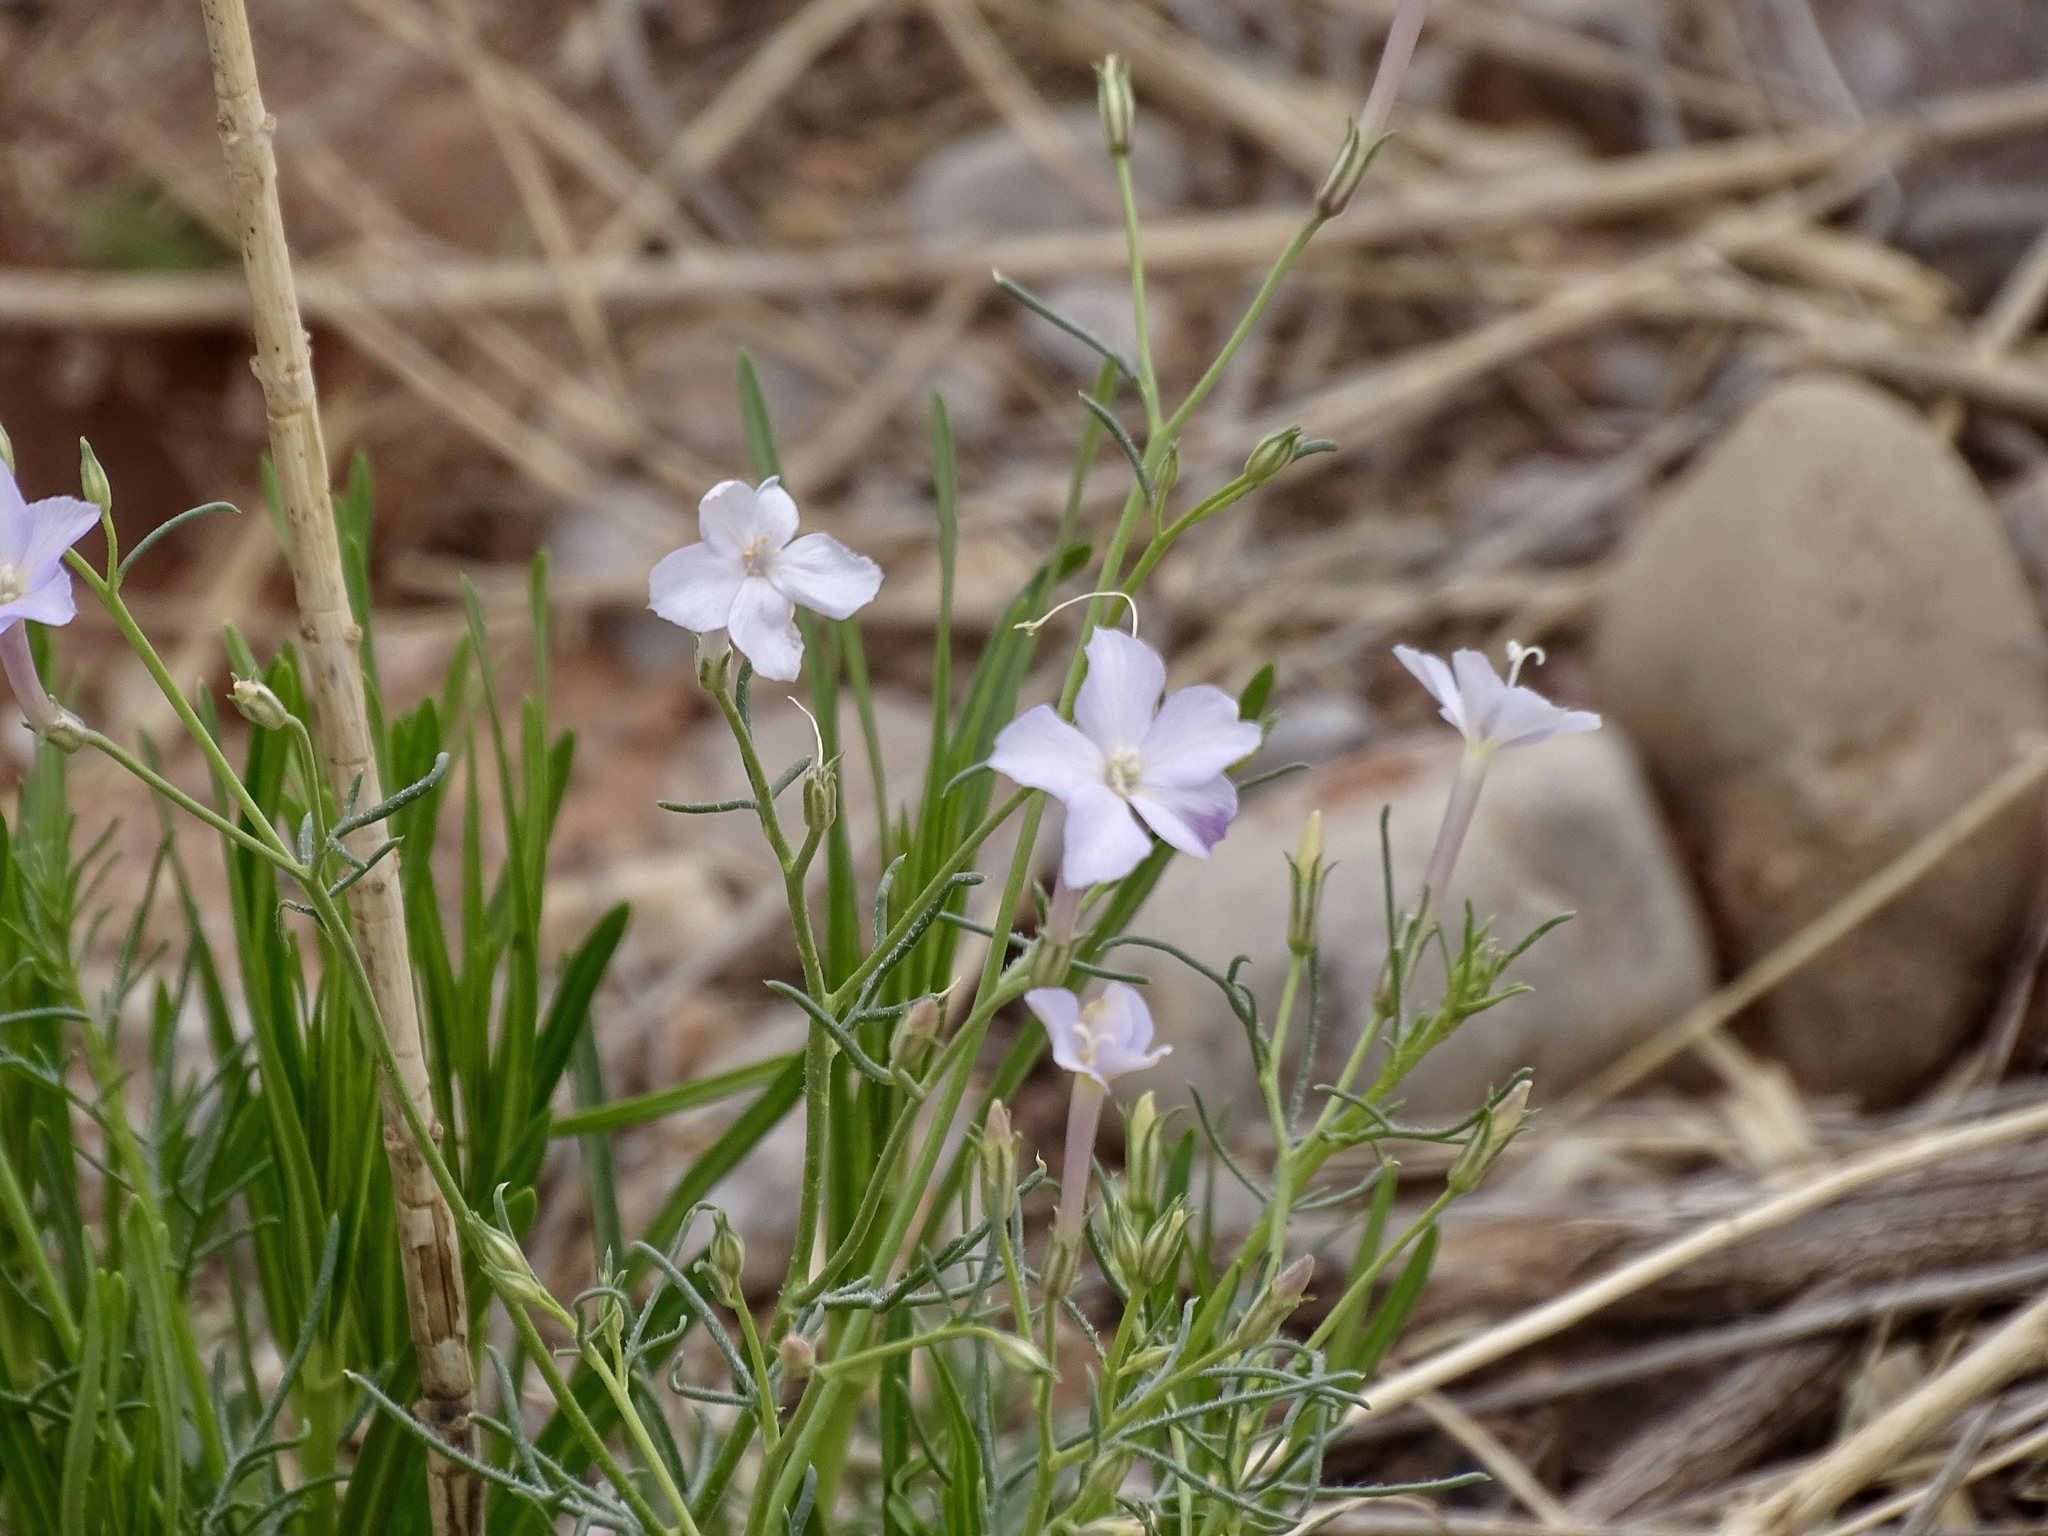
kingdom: Plantae
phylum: Tracheophyta
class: Magnoliopsida
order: Ericales
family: Polemoniaceae
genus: Ipomopsis
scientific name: Ipomopsis longiflora
